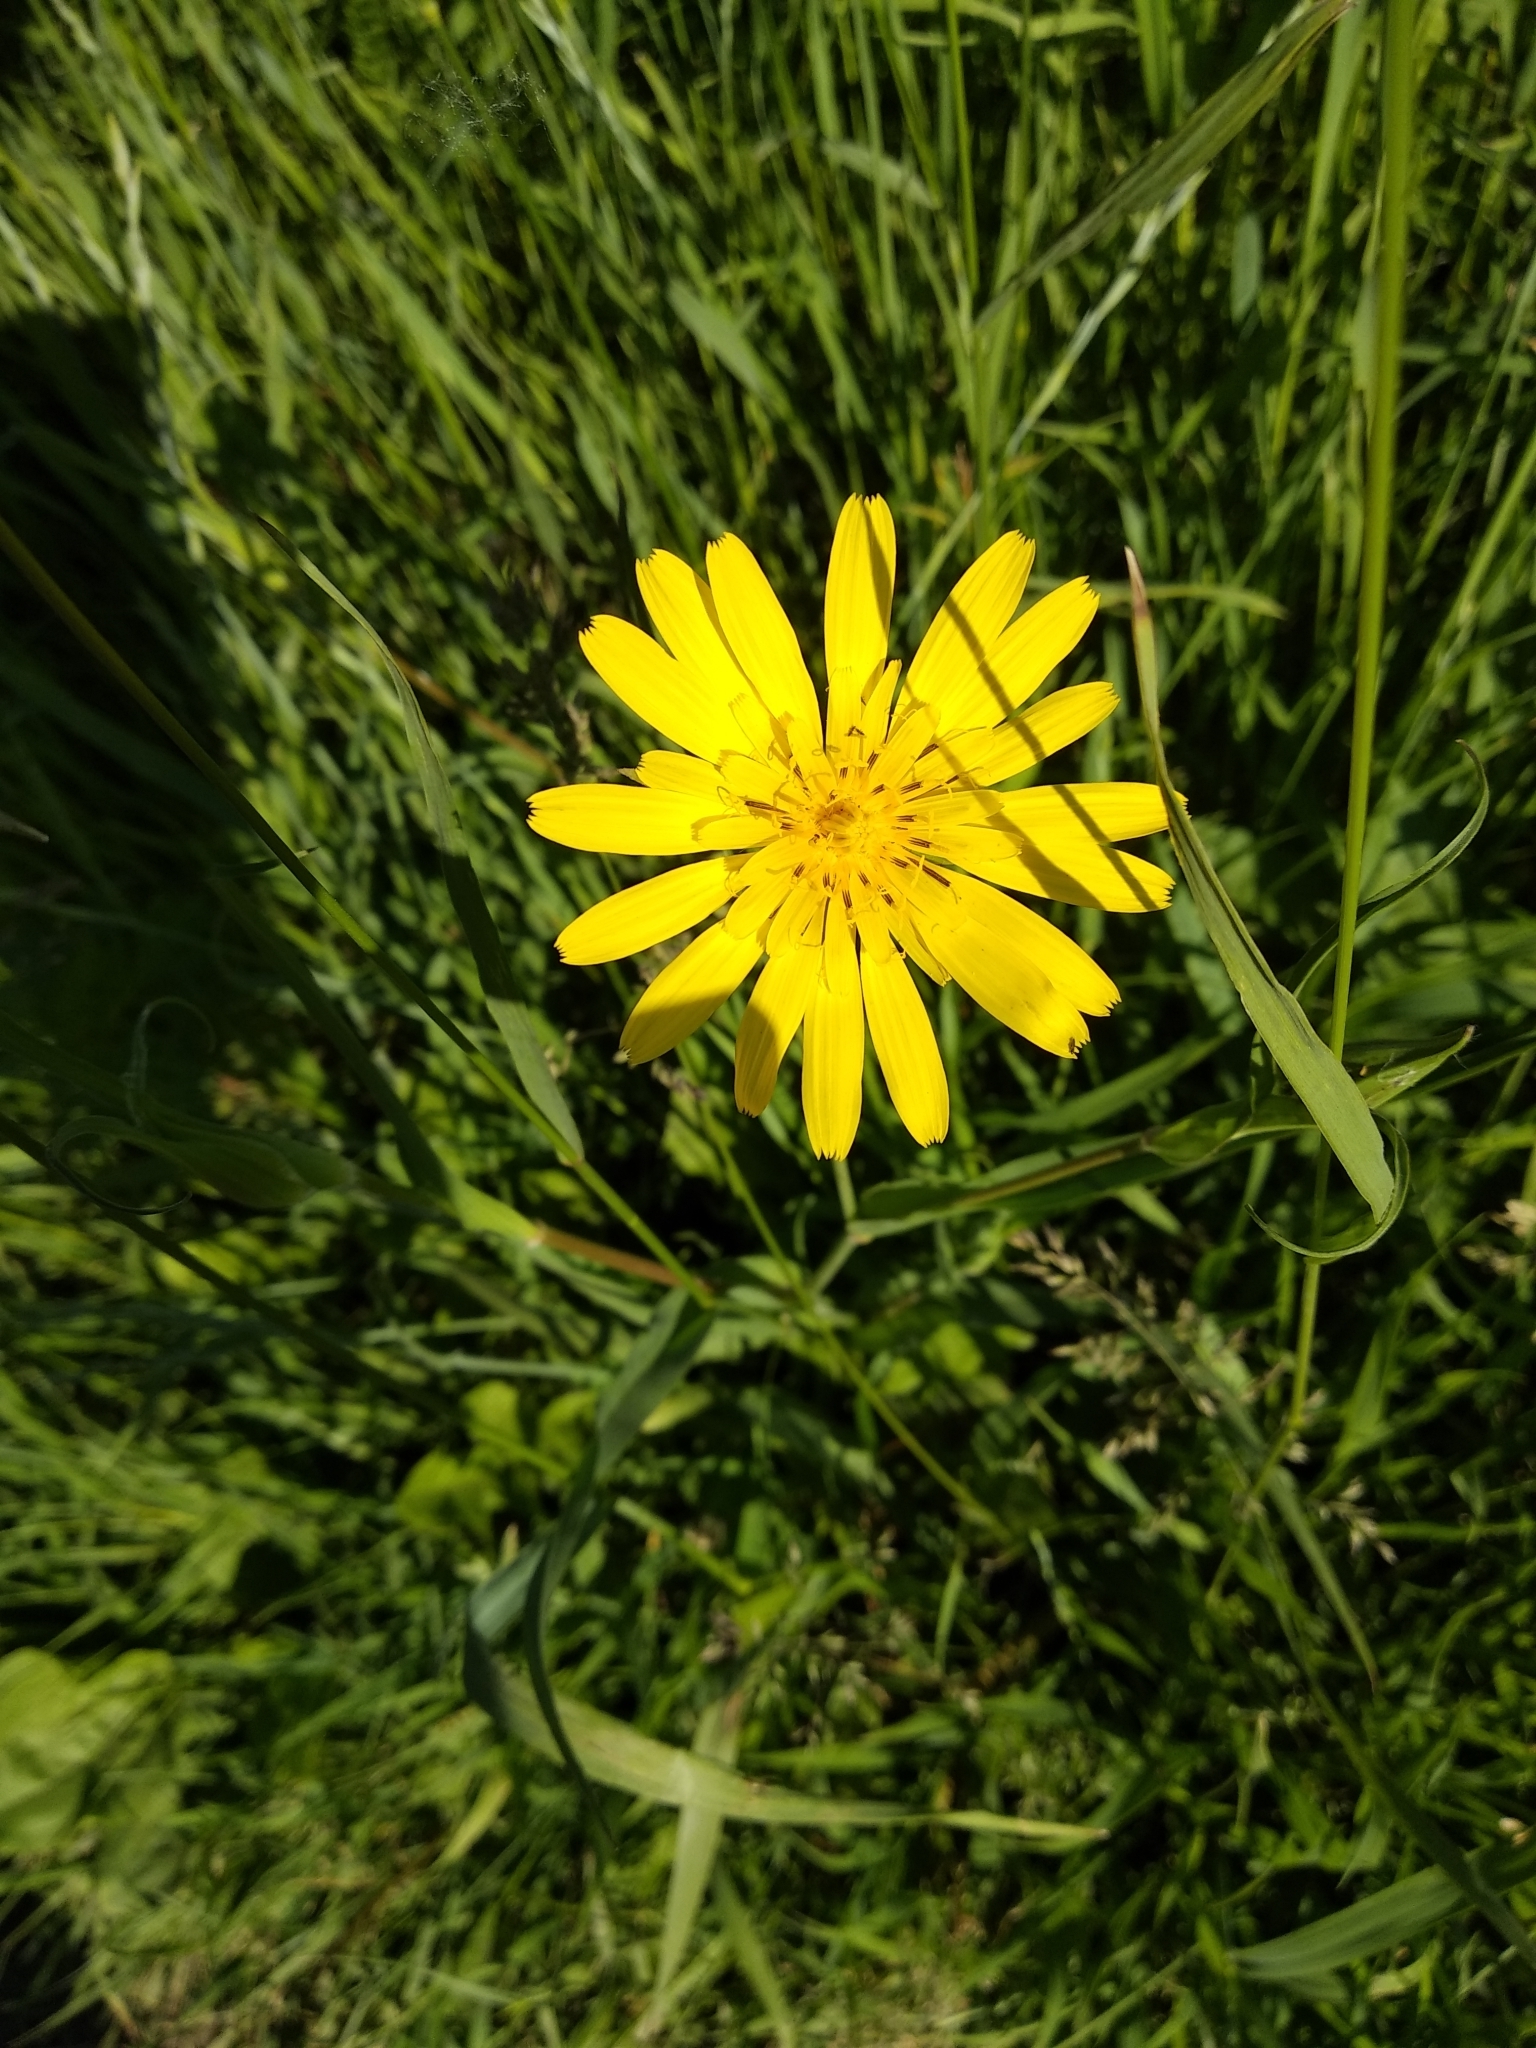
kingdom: Plantae
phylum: Tracheophyta
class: Magnoliopsida
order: Asterales
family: Asteraceae
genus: Tragopogon
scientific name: Tragopogon orientalis
